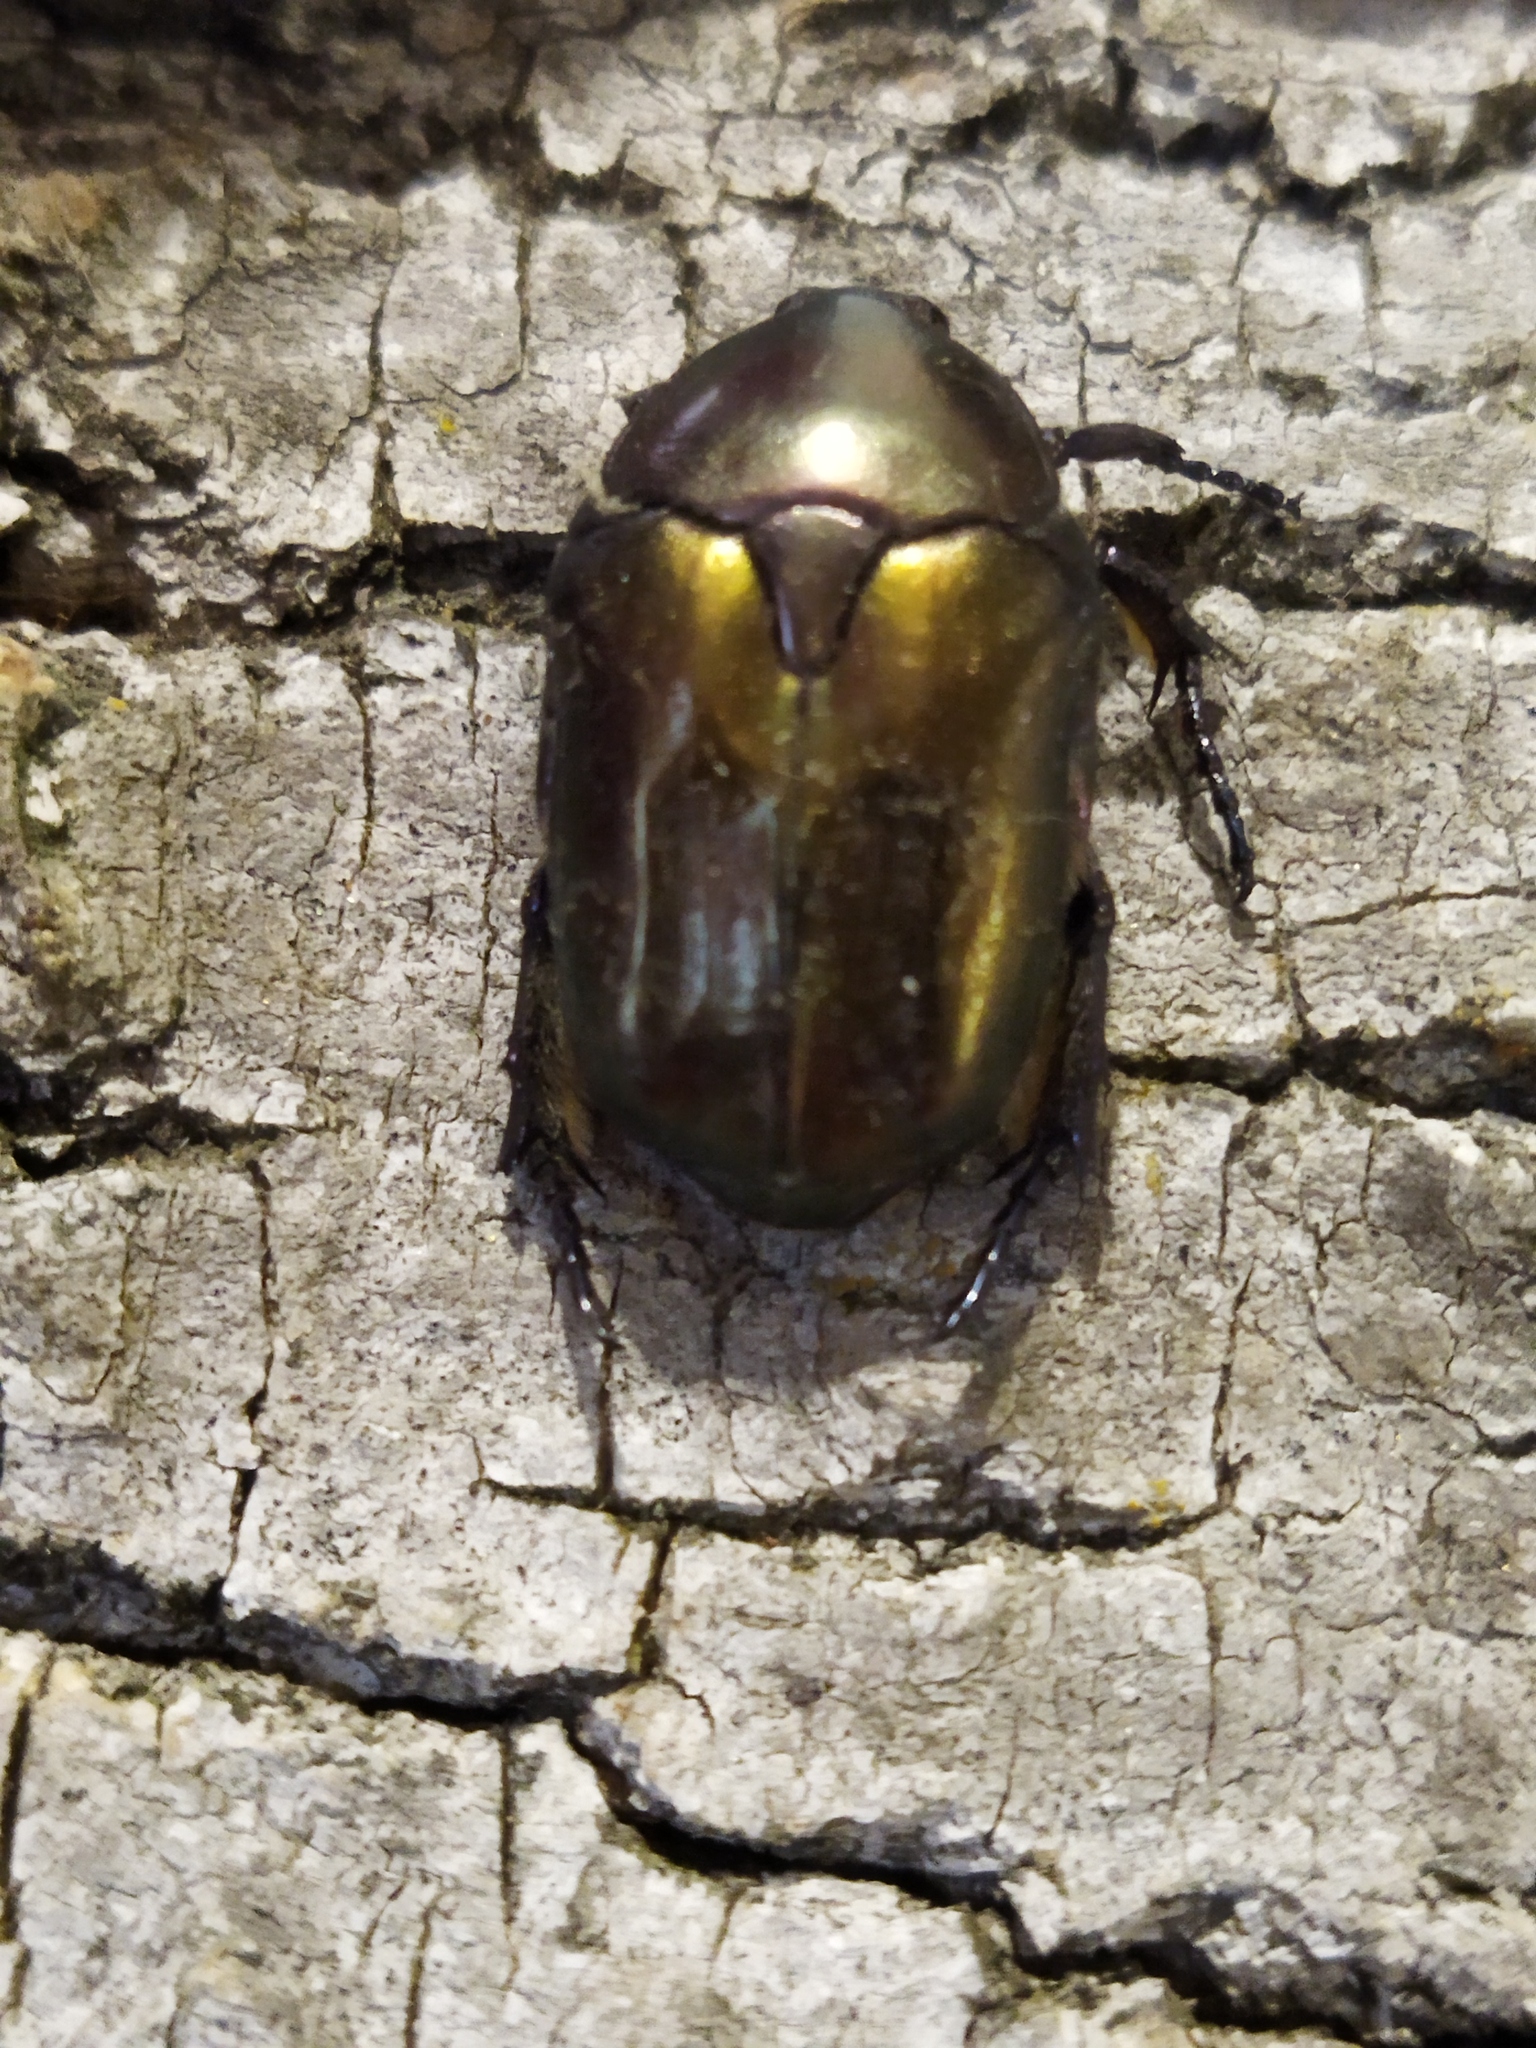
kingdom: Animalia
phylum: Arthropoda
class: Insecta
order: Coleoptera
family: Scarabaeidae
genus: Protaetia
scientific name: Protaetia cuprea
